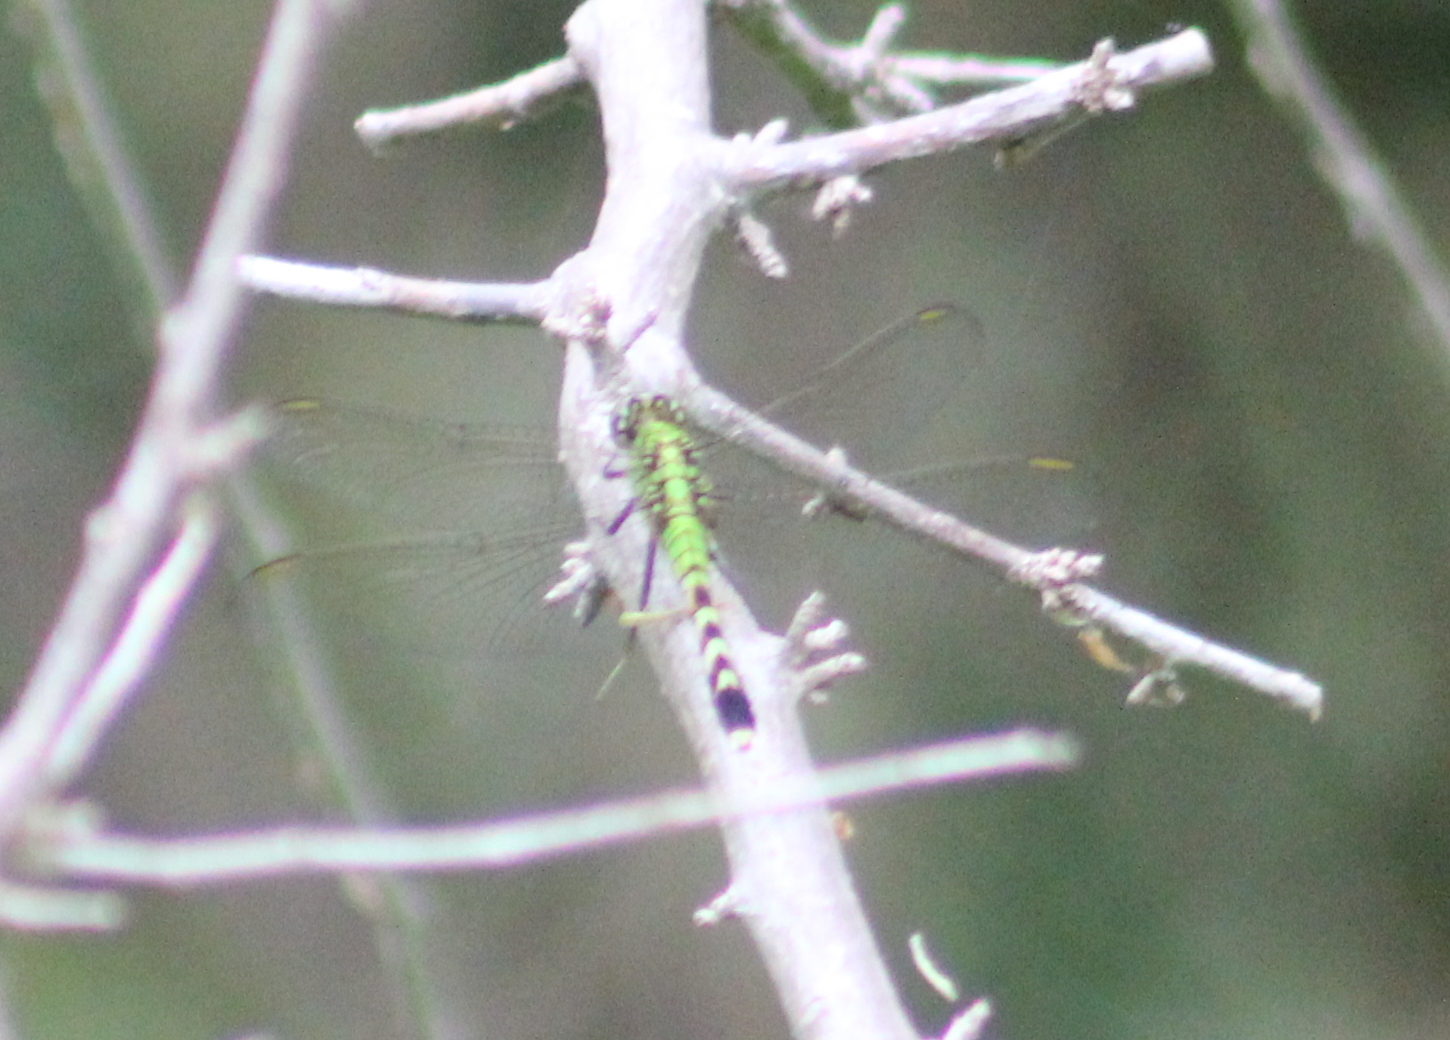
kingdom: Animalia
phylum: Arthropoda
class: Insecta
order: Odonata
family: Libellulidae
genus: Erythemis
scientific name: Erythemis simplicicollis
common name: Eastern pondhawk
